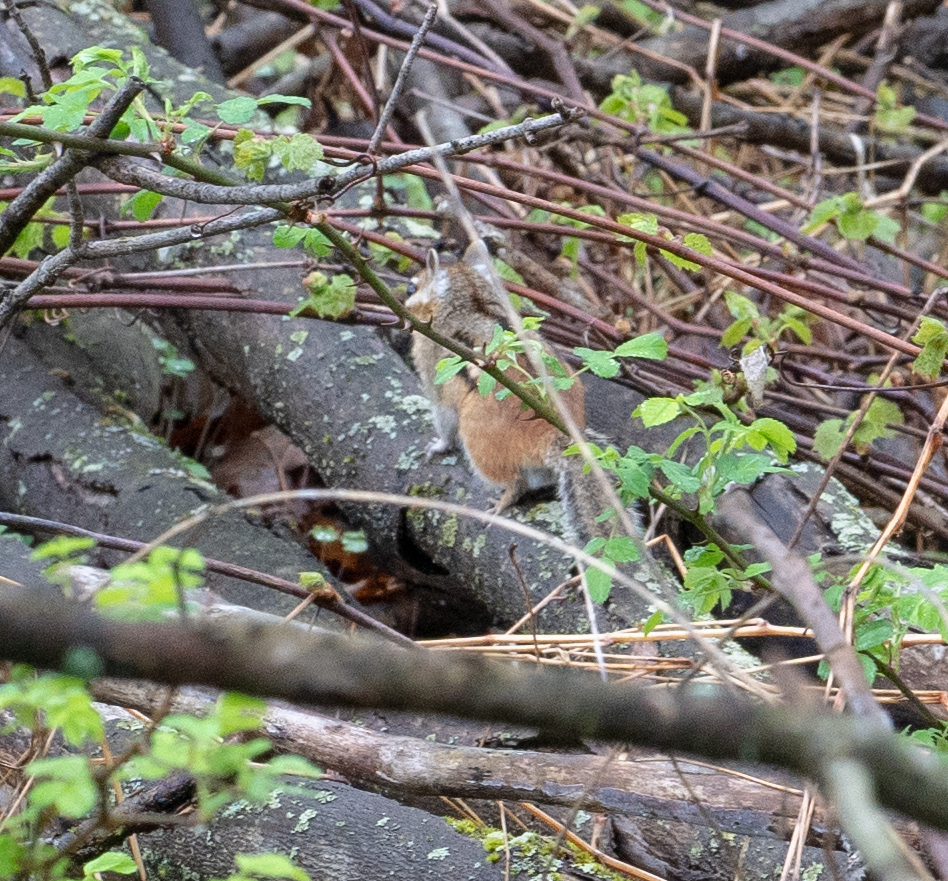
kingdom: Animalia
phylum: Chordata
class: Mammalia
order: Rodentia
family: Sciuridae
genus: Tamias
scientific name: Tamias striatus
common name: Eastern chipmunk
